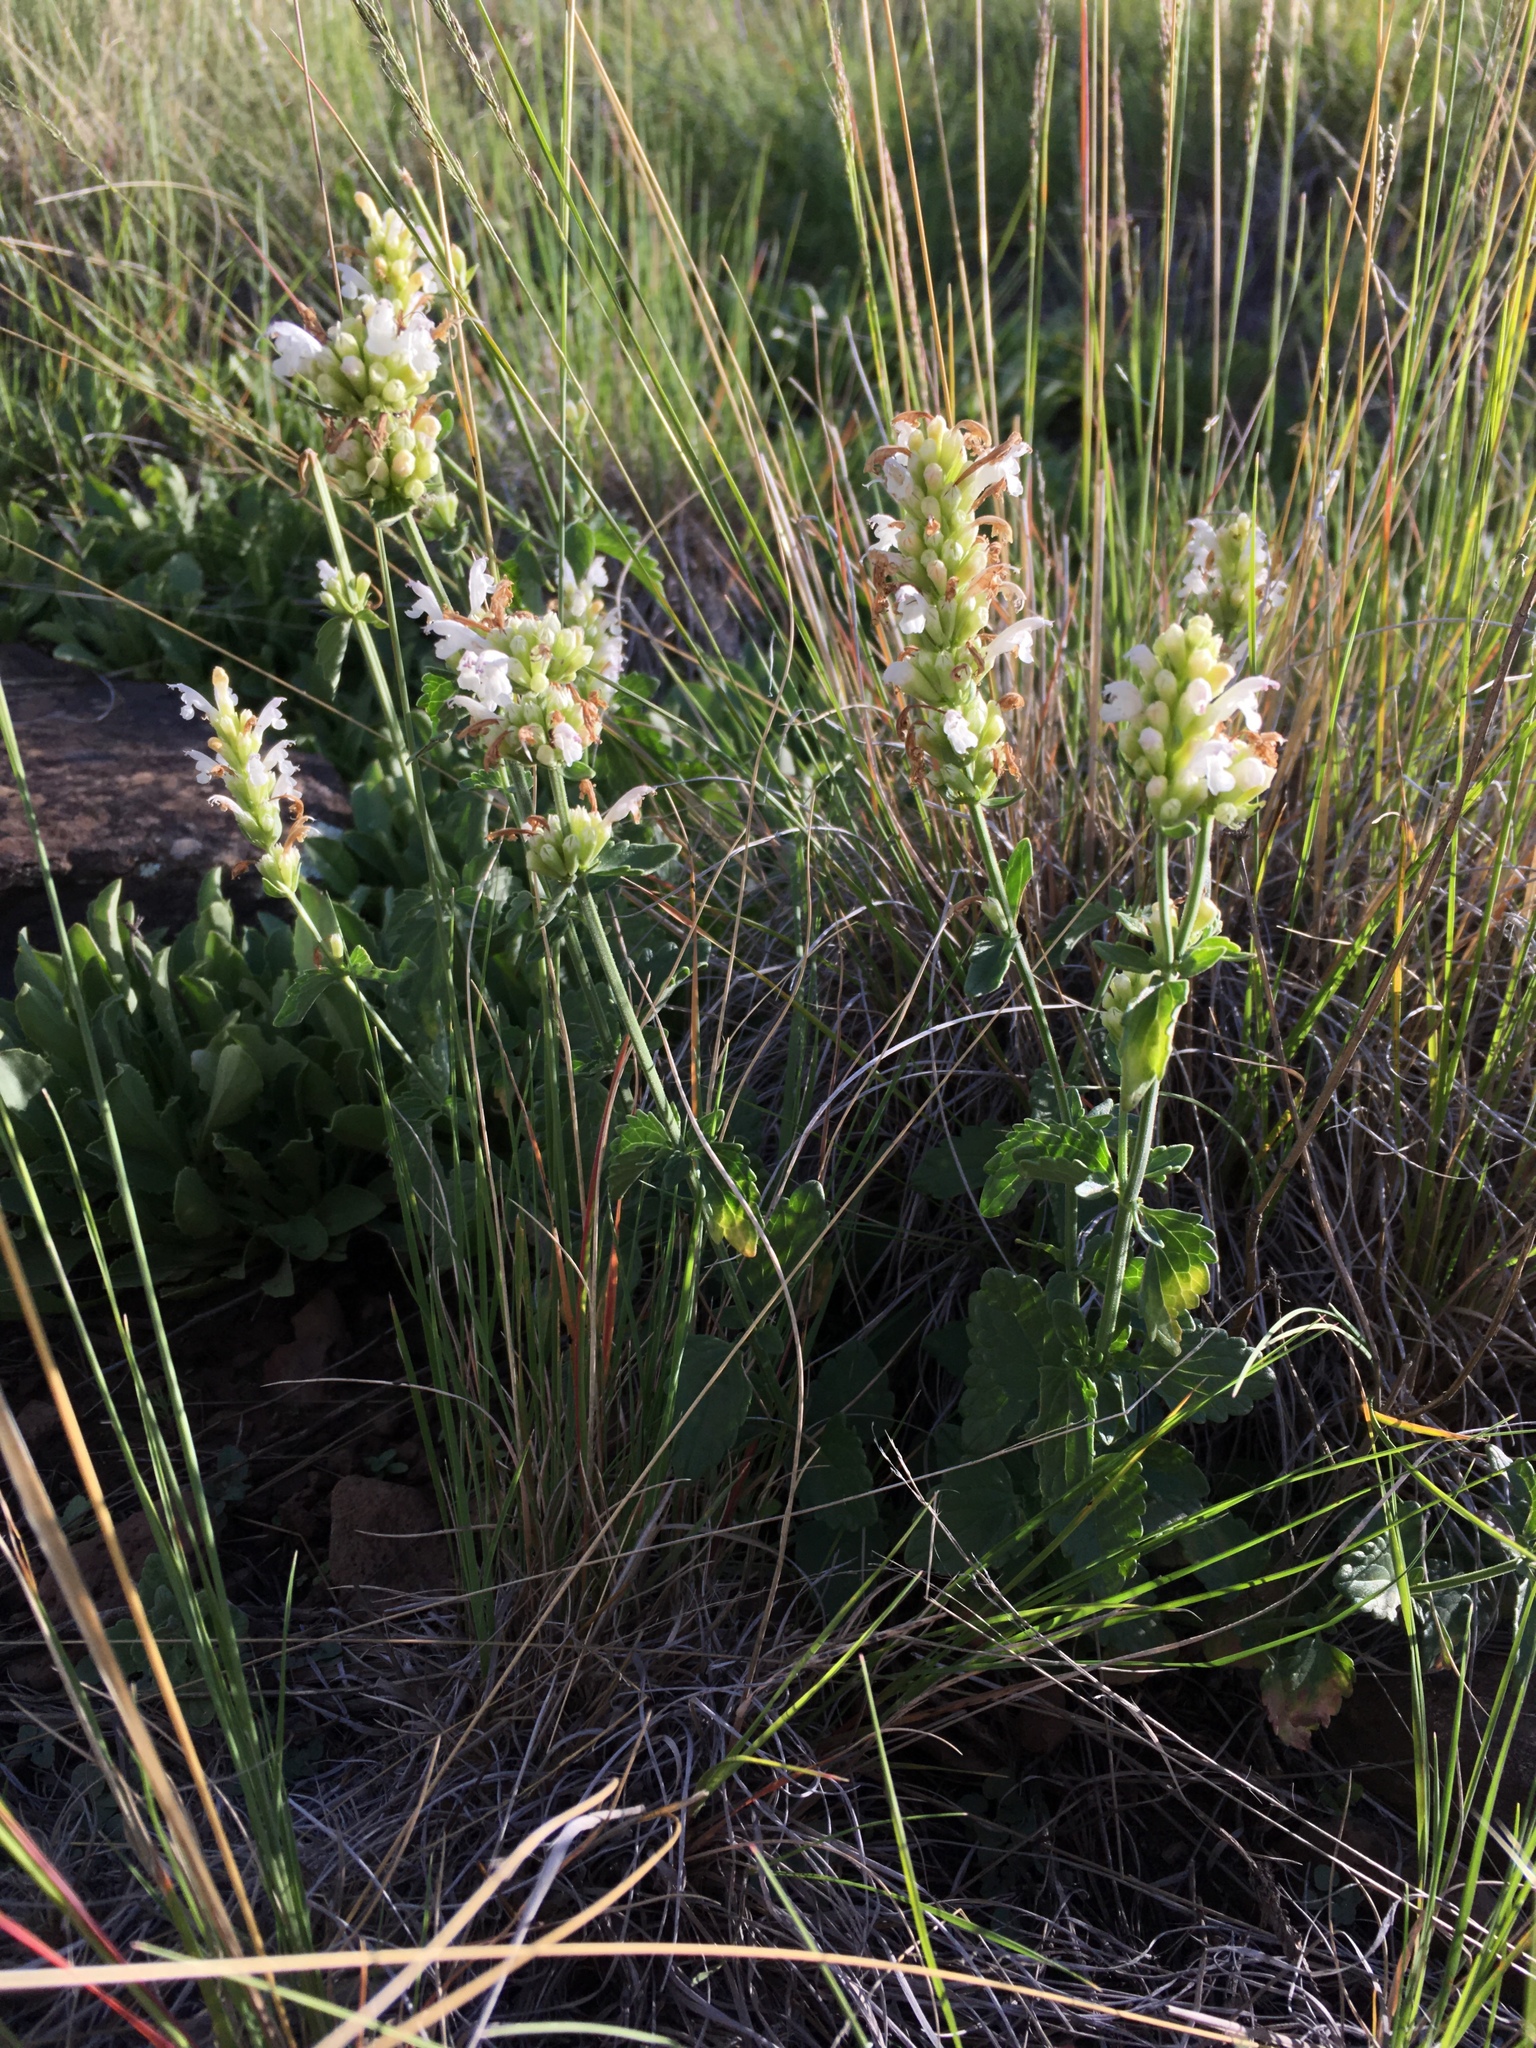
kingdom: Plantae
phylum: Tracheophyta
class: Magnoliopsida
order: Lamiales
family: Lamiaceae
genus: Agastache
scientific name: Agastache pallidiflora
